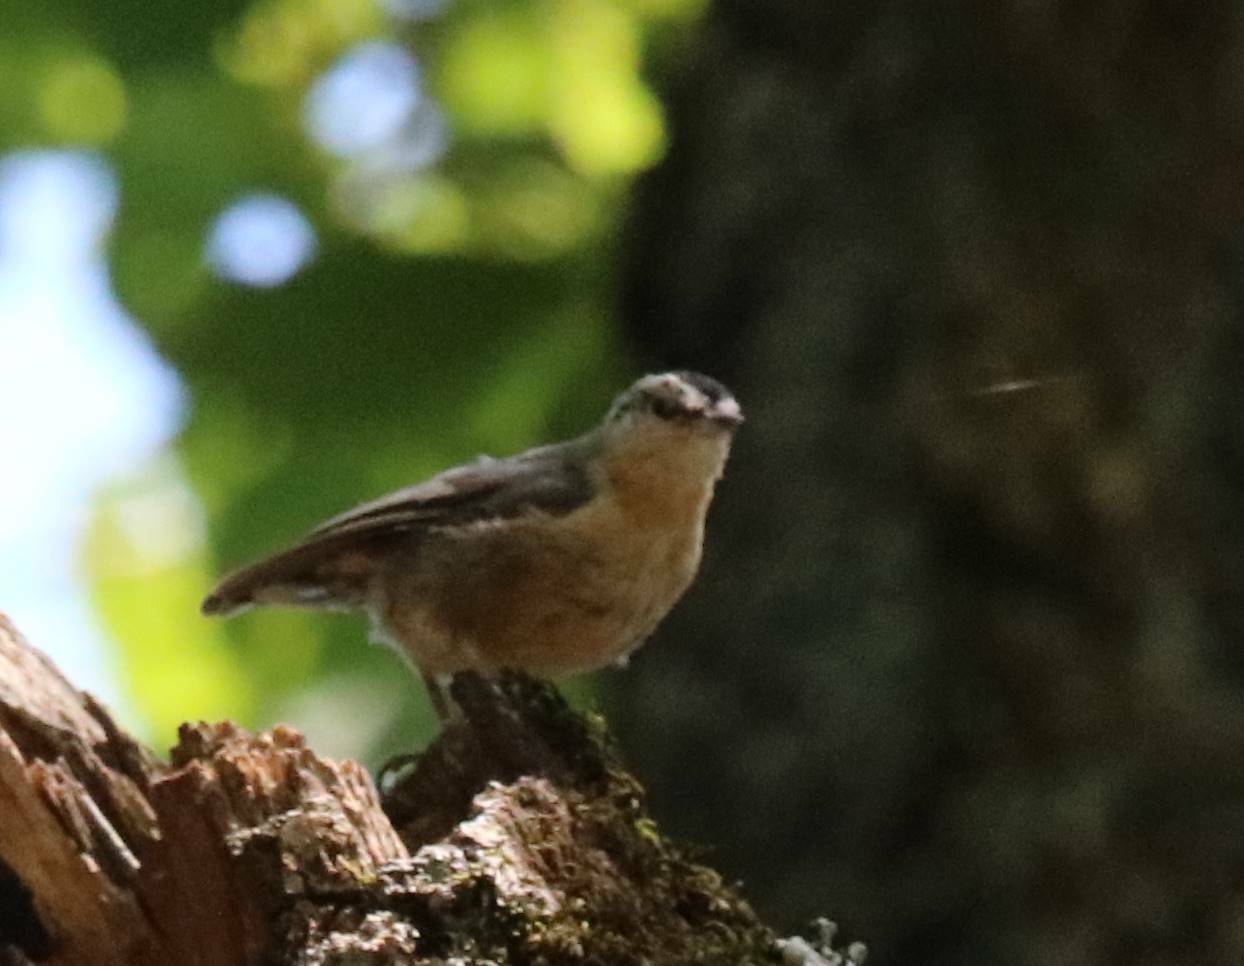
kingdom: Animalia
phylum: Chordata
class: Aves
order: Passeriformes
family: Sittidae
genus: Sitta
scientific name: Sitta ledanti
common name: Algerian nuthatch
